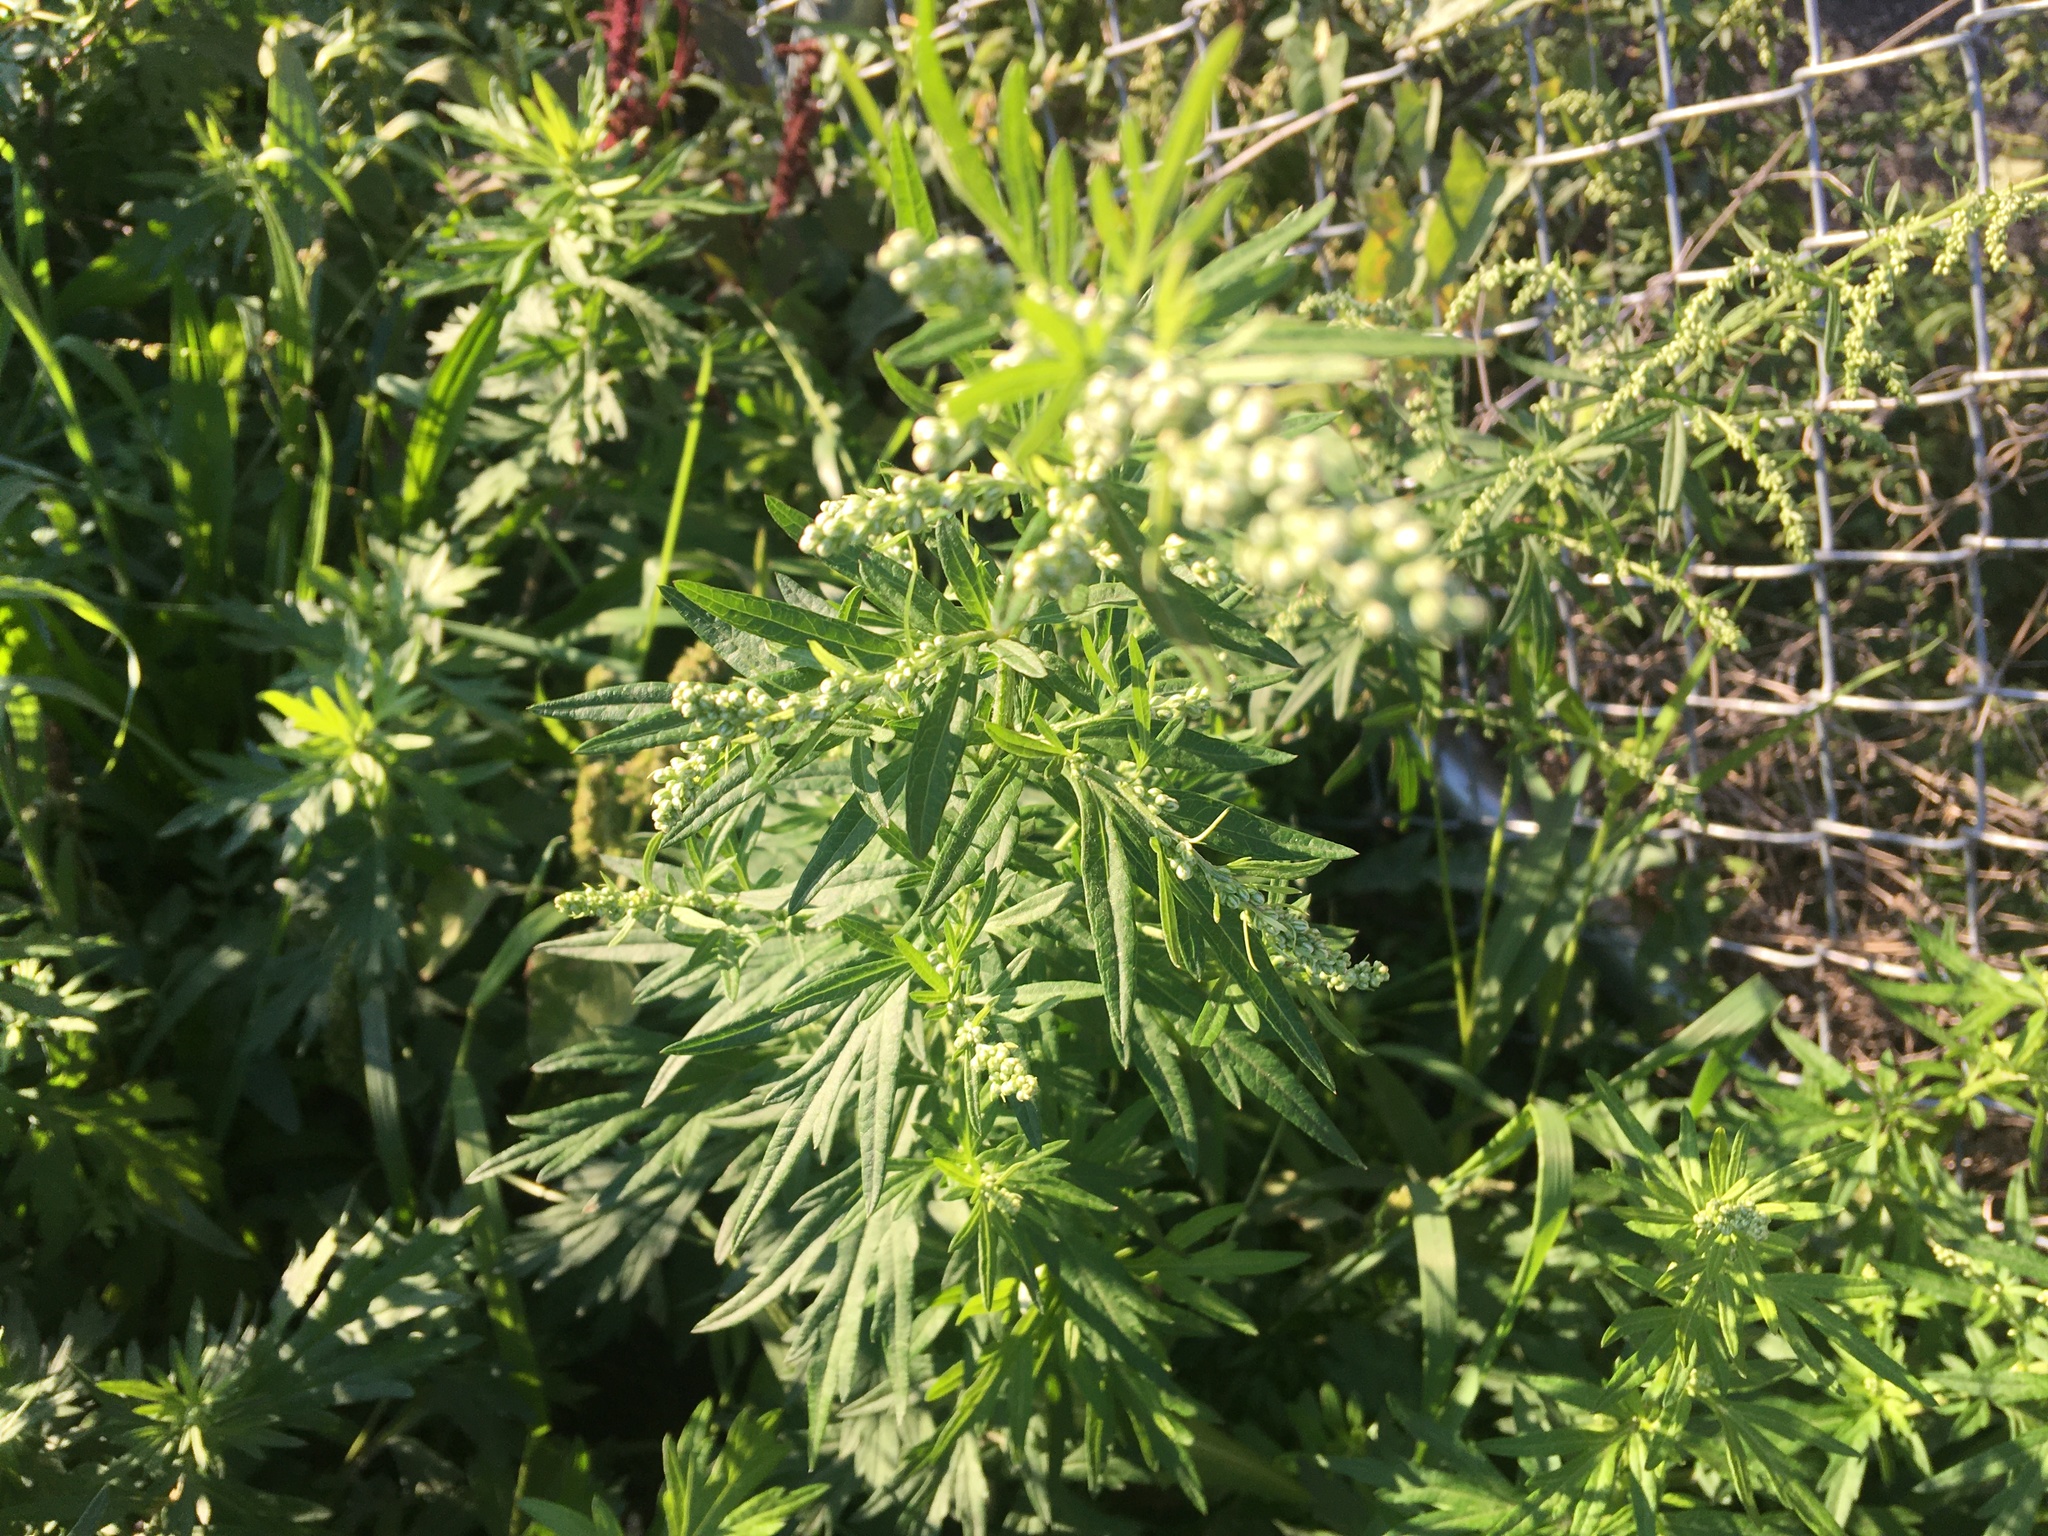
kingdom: Plantae
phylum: Tracheophyta
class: Magnoliopsida
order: Asterales
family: Asteraceae
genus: Artemisia
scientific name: Artemisia vulgaris
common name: Mugwort
